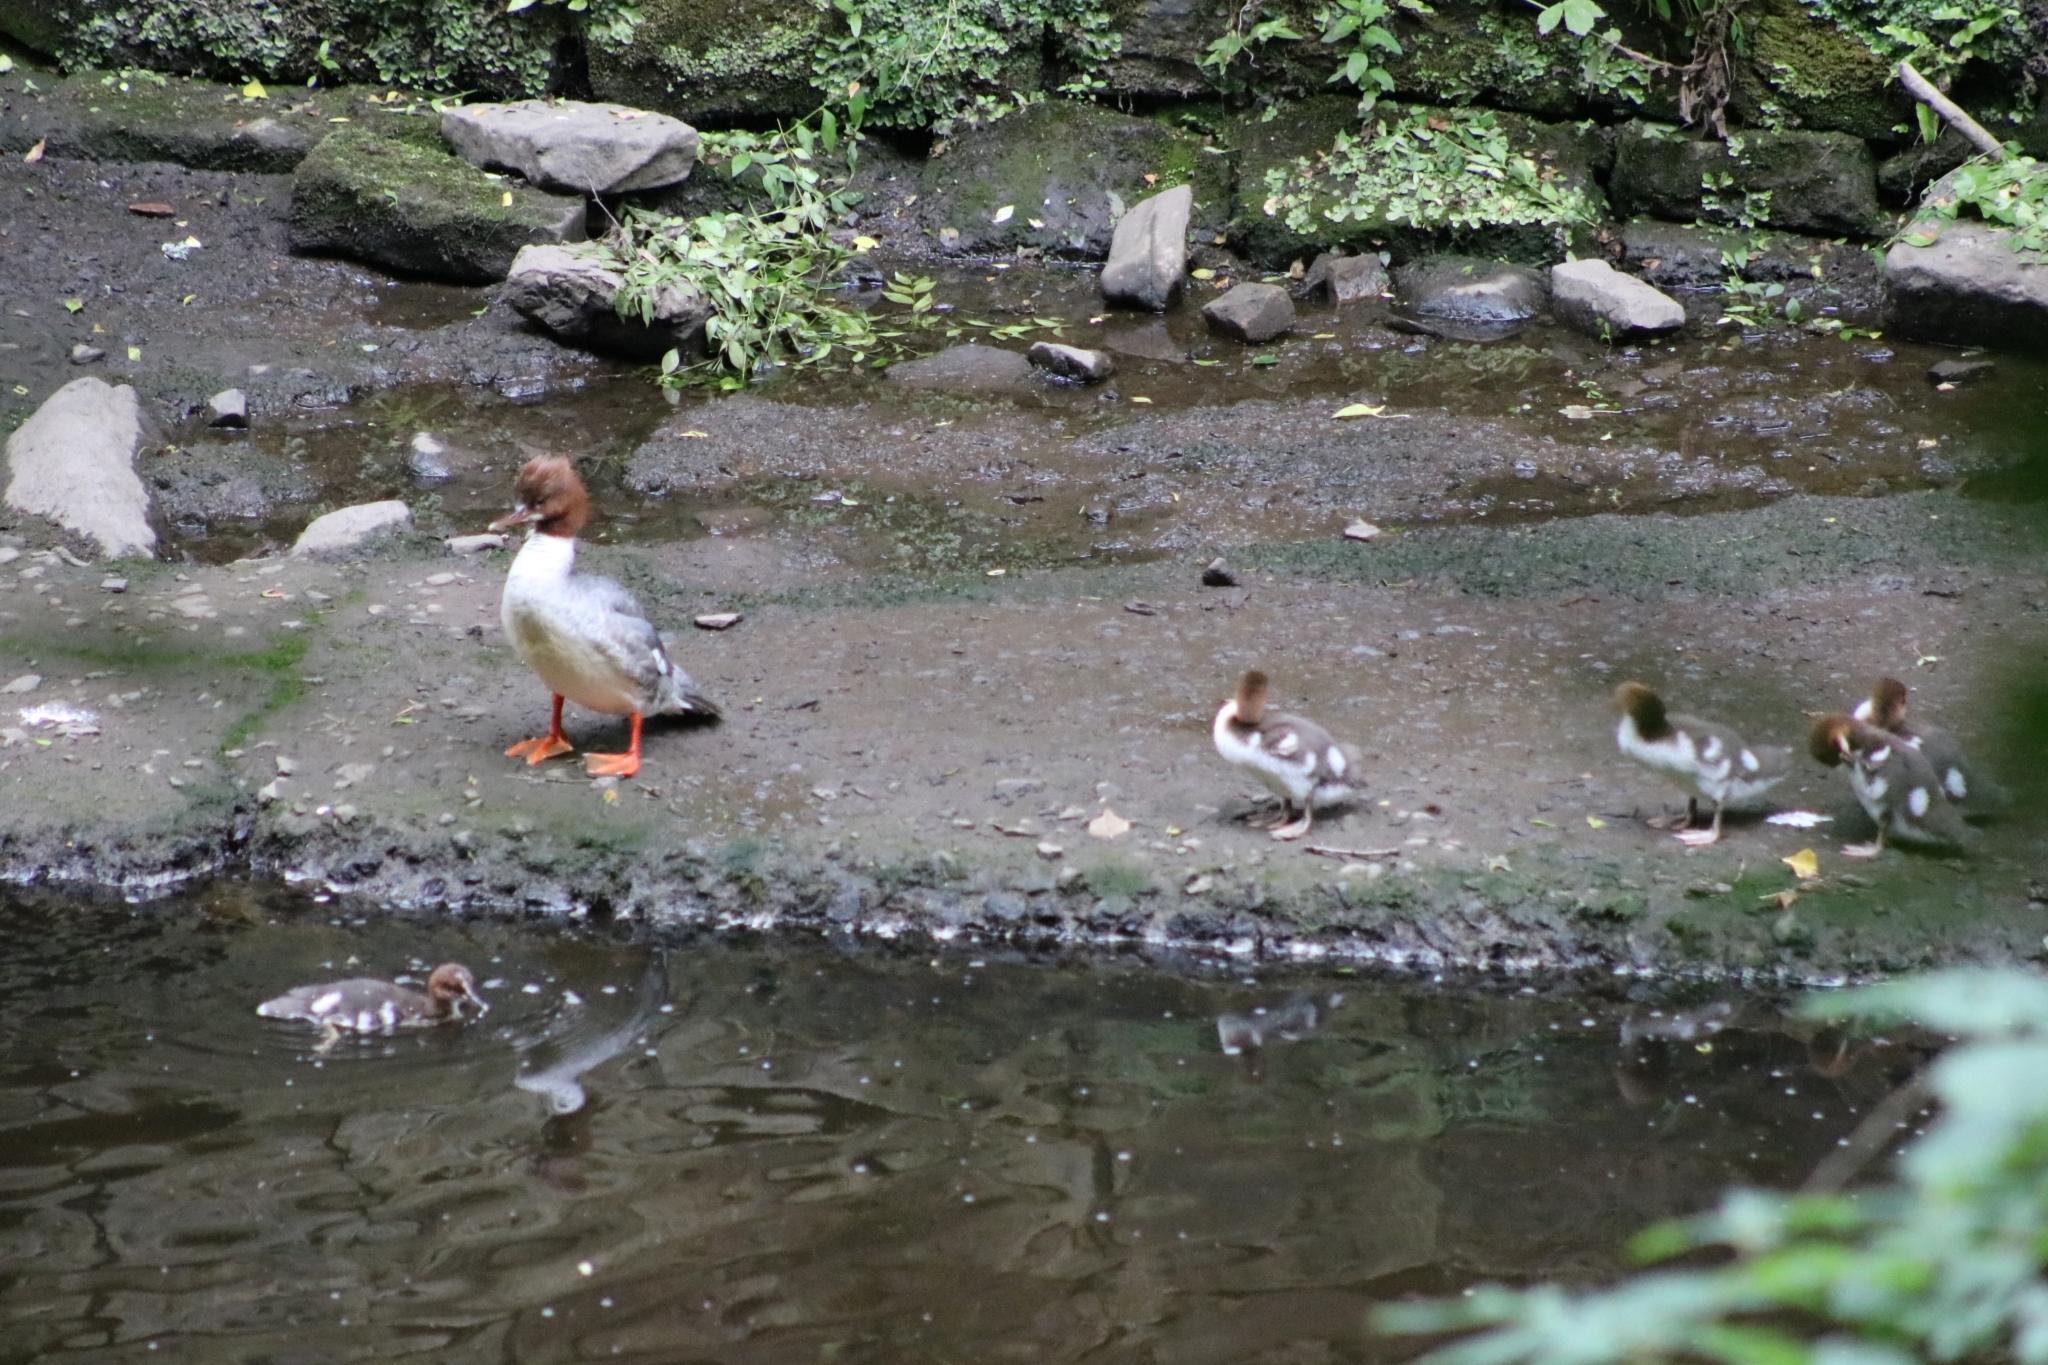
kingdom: Animalia
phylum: Chordata
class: Aves
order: Anseriformes
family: Anatidae
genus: Mergus
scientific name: Mergus merganser
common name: Common merganser
